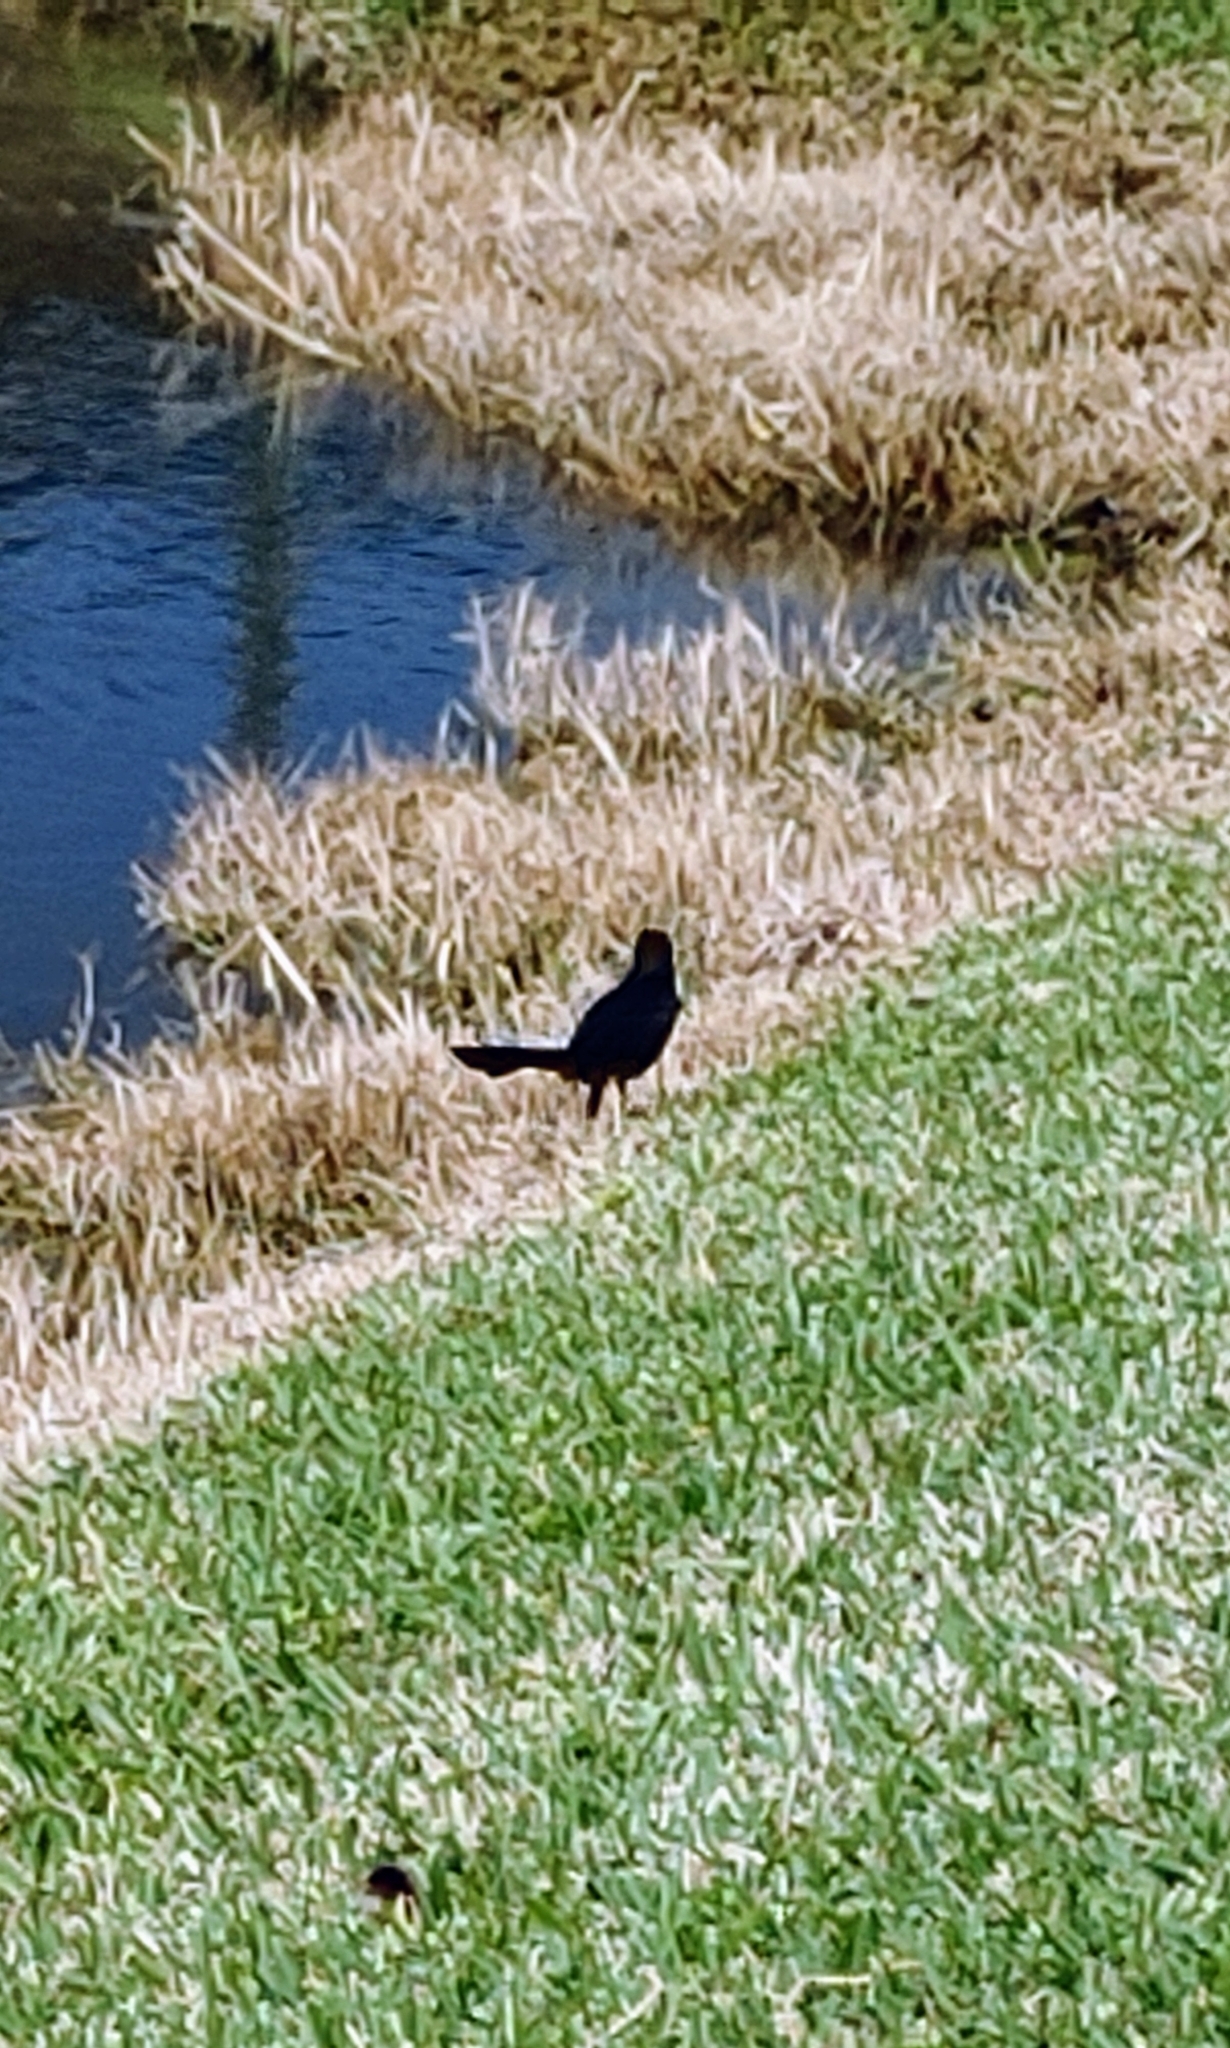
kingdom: Animalia
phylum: Chordata
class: Aves
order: Passeriformes
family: Icteridae
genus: Quiscalus
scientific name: Quiscalus major
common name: Boat-tailed grackle
